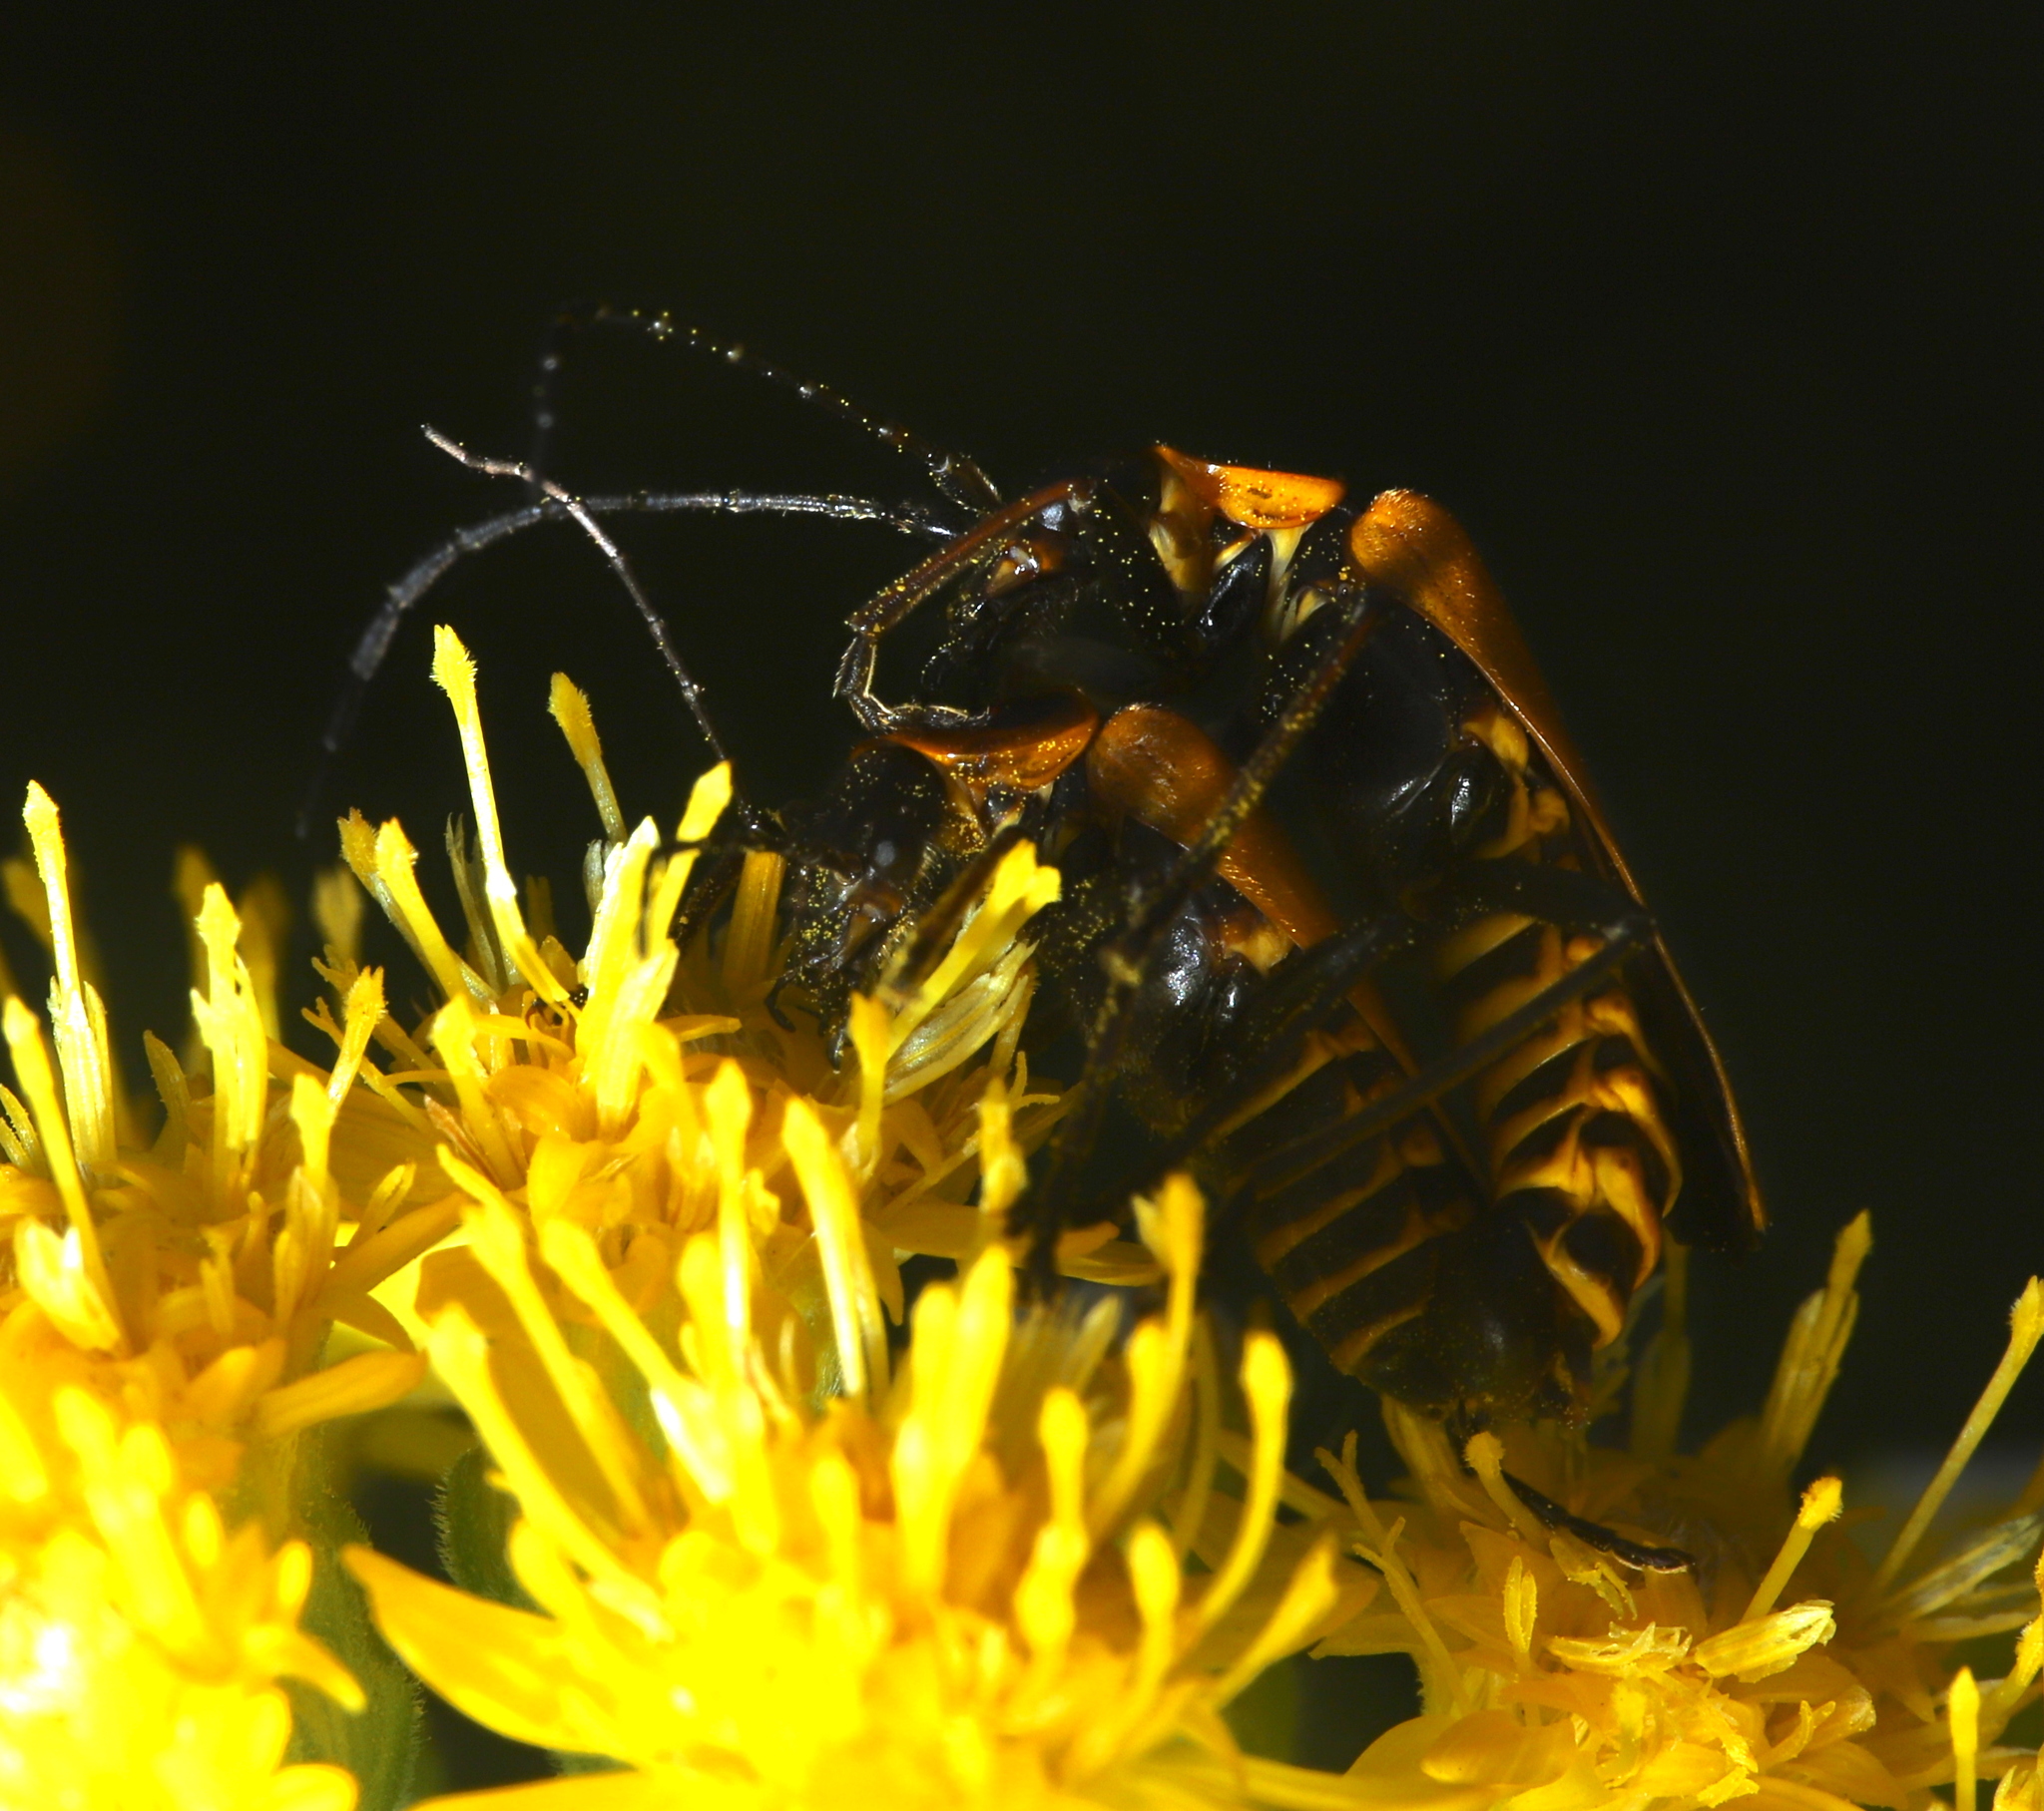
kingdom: Animalia
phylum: Arthropoda
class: Insecta
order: Coleoptera
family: Cantharidae
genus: Chauliognathus
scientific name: Chauliognathus pensylvanicus
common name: Goldenrod soldier beetle
